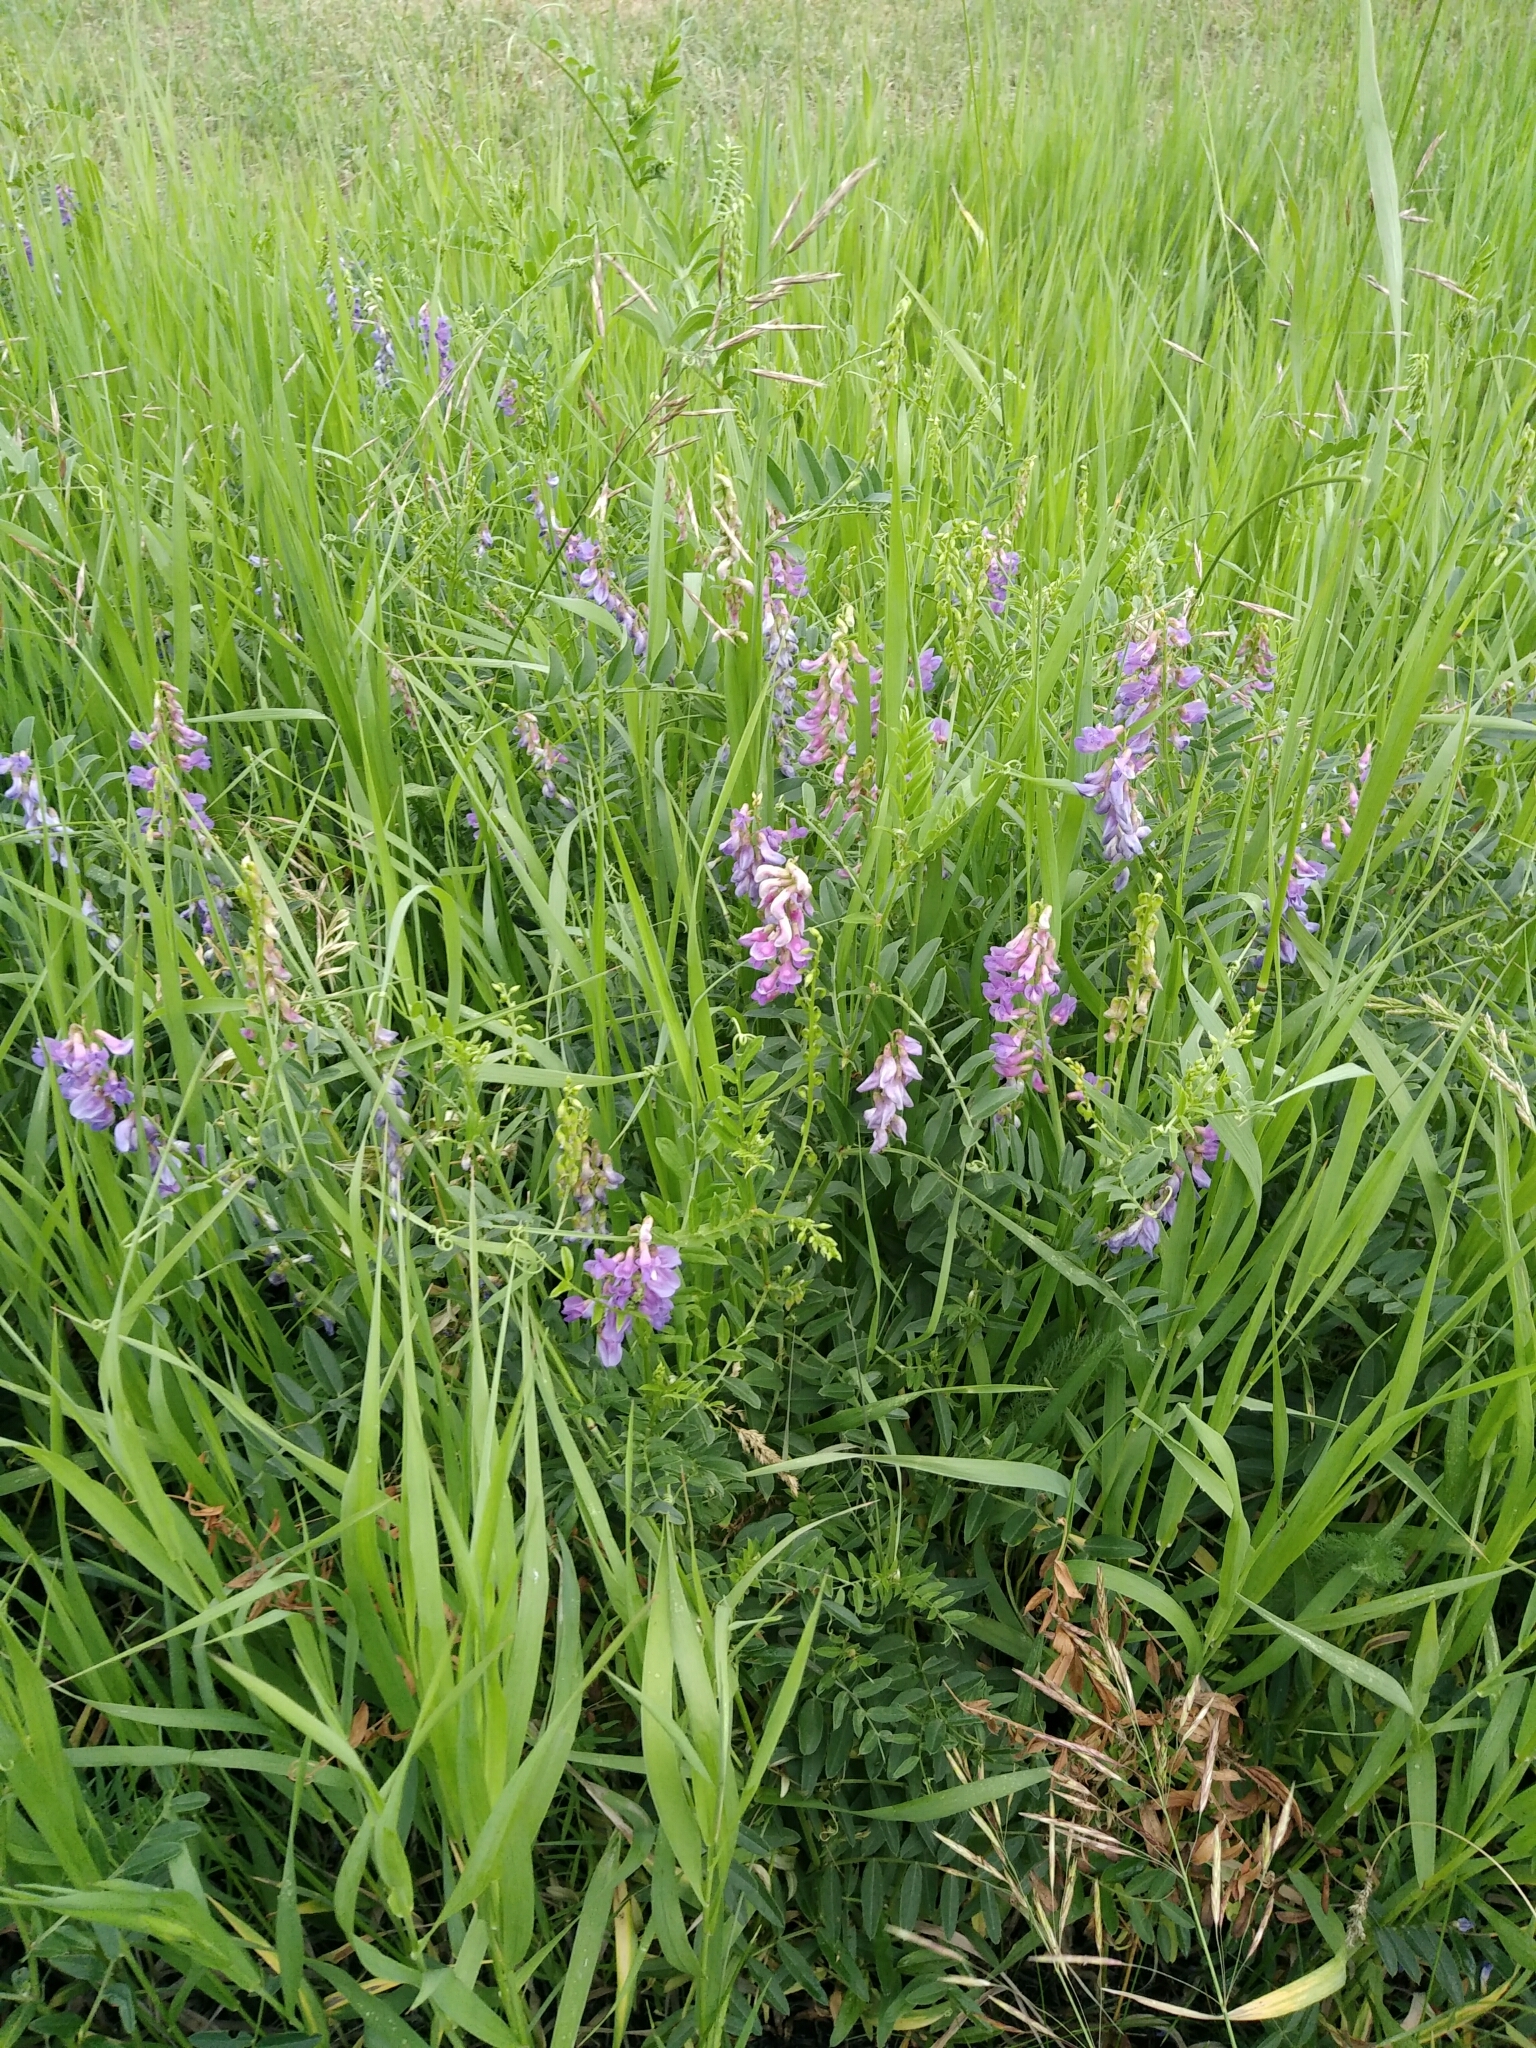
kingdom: Plantae
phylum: Tracheophyta
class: Magnoliopsida
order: Fabales
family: Fabaceae
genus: Vicia
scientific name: Vicia amoena
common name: Cheder ebs
